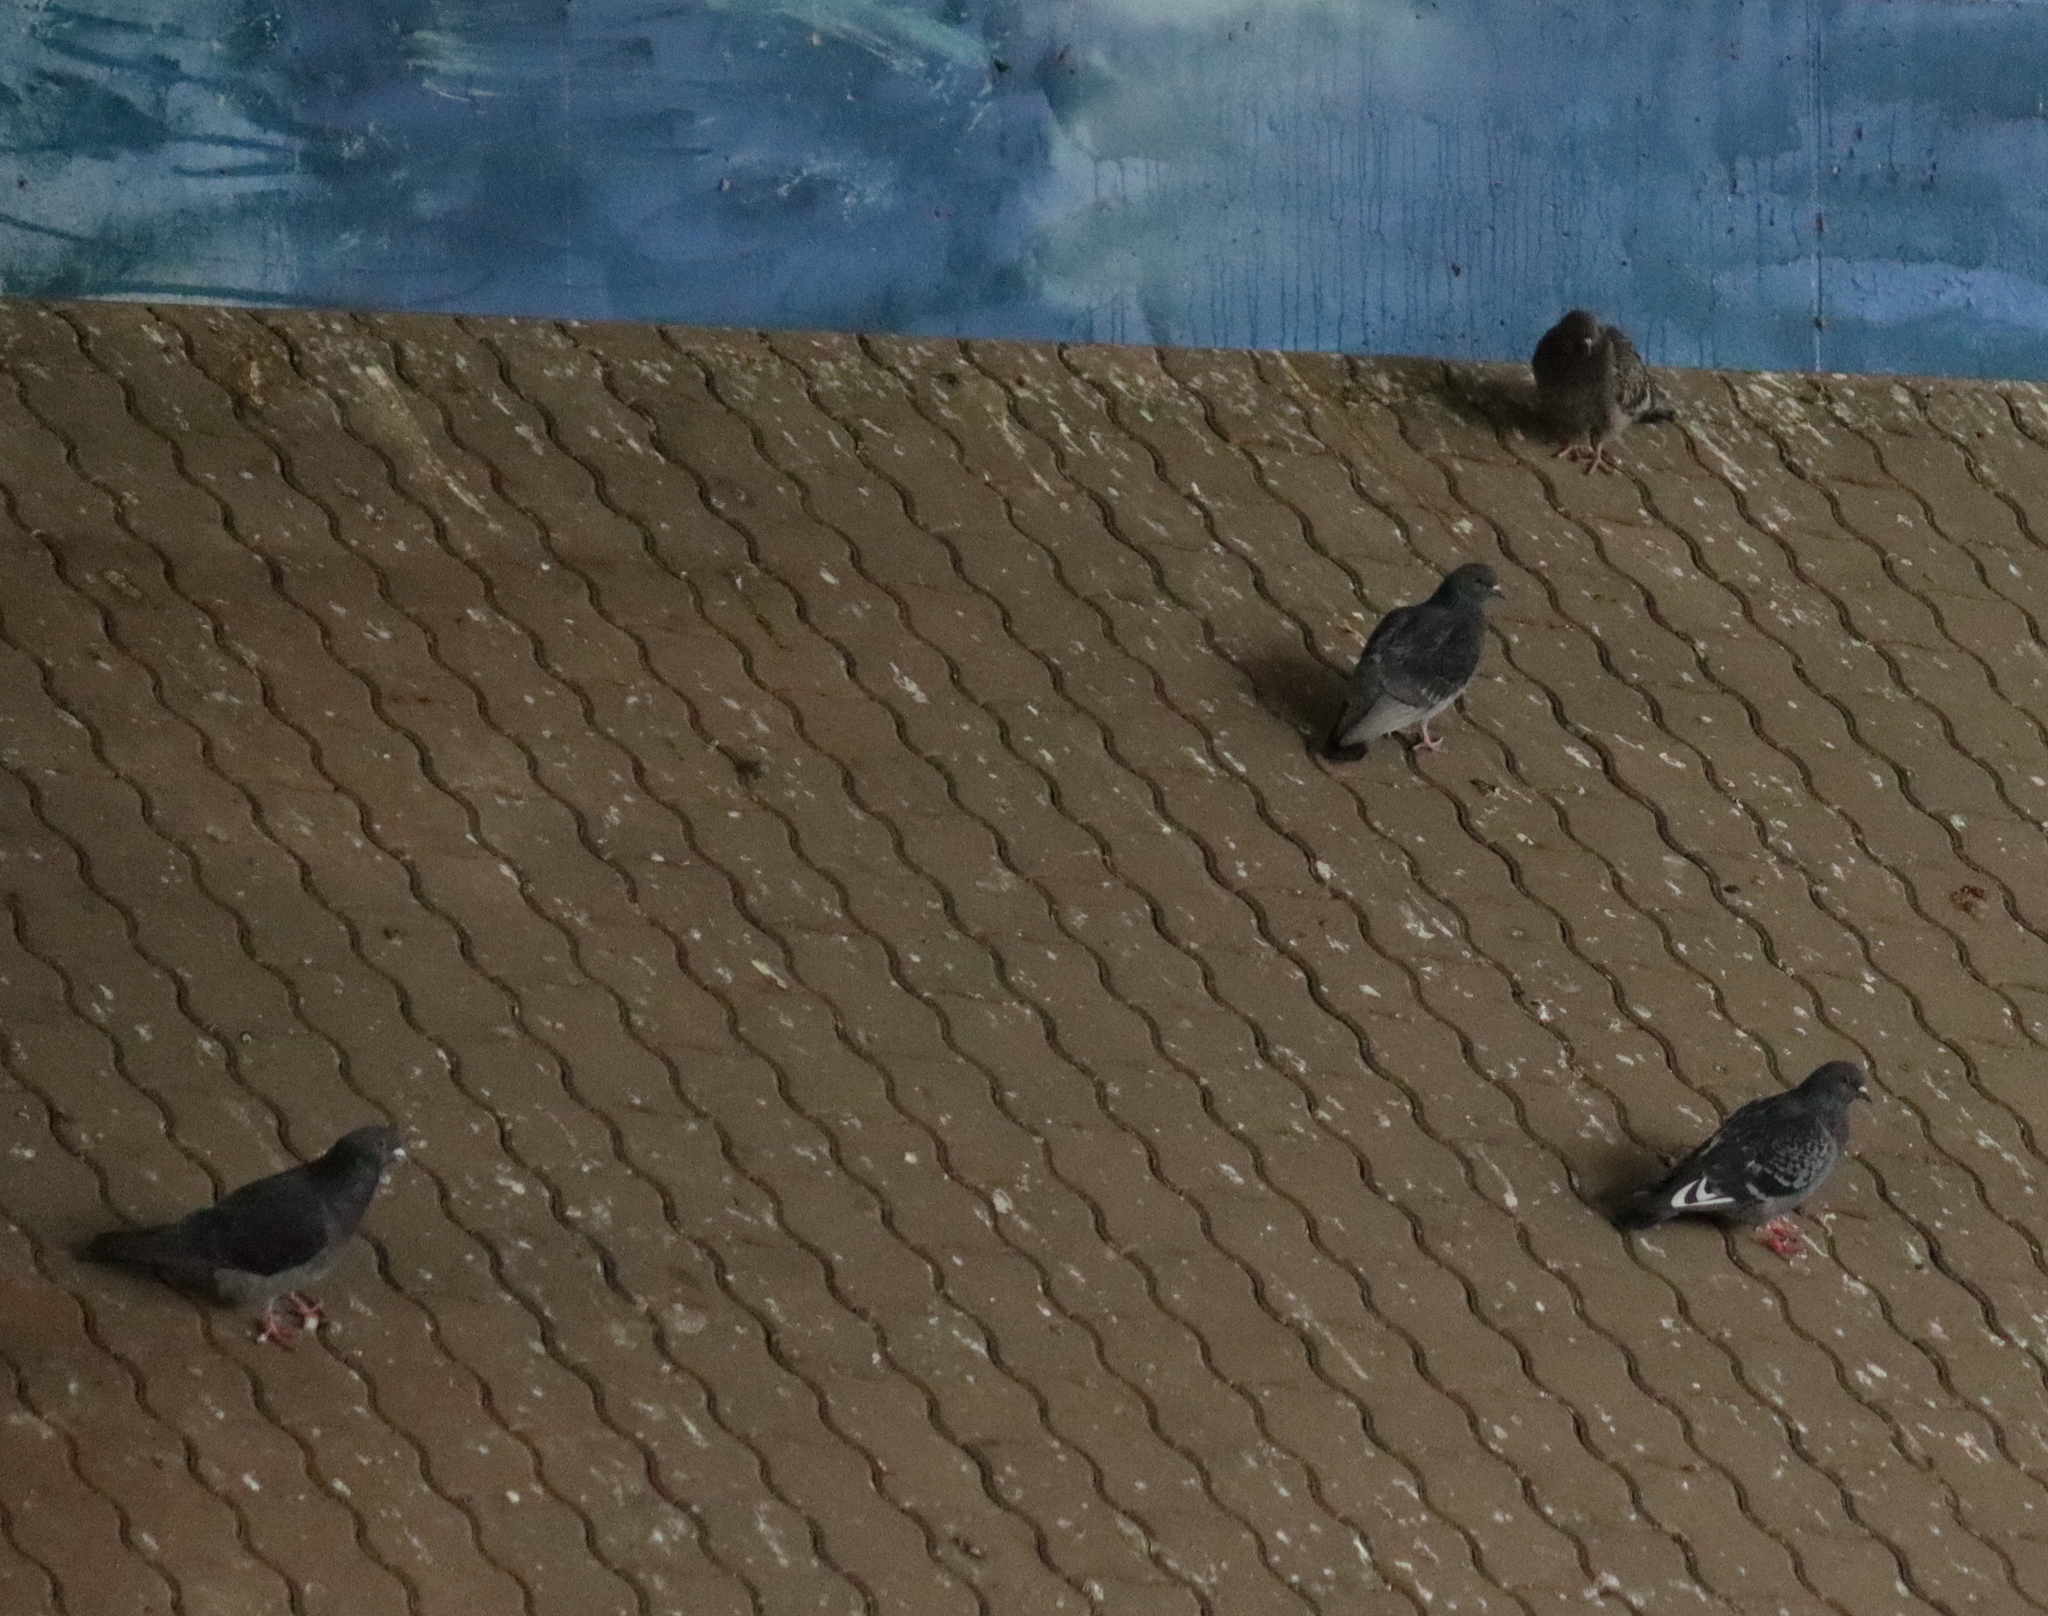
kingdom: Animalia
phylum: Chordata
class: Aves
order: Columbiformes
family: Columbidae
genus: Columba
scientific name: Columba livia
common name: Rock pigeon
